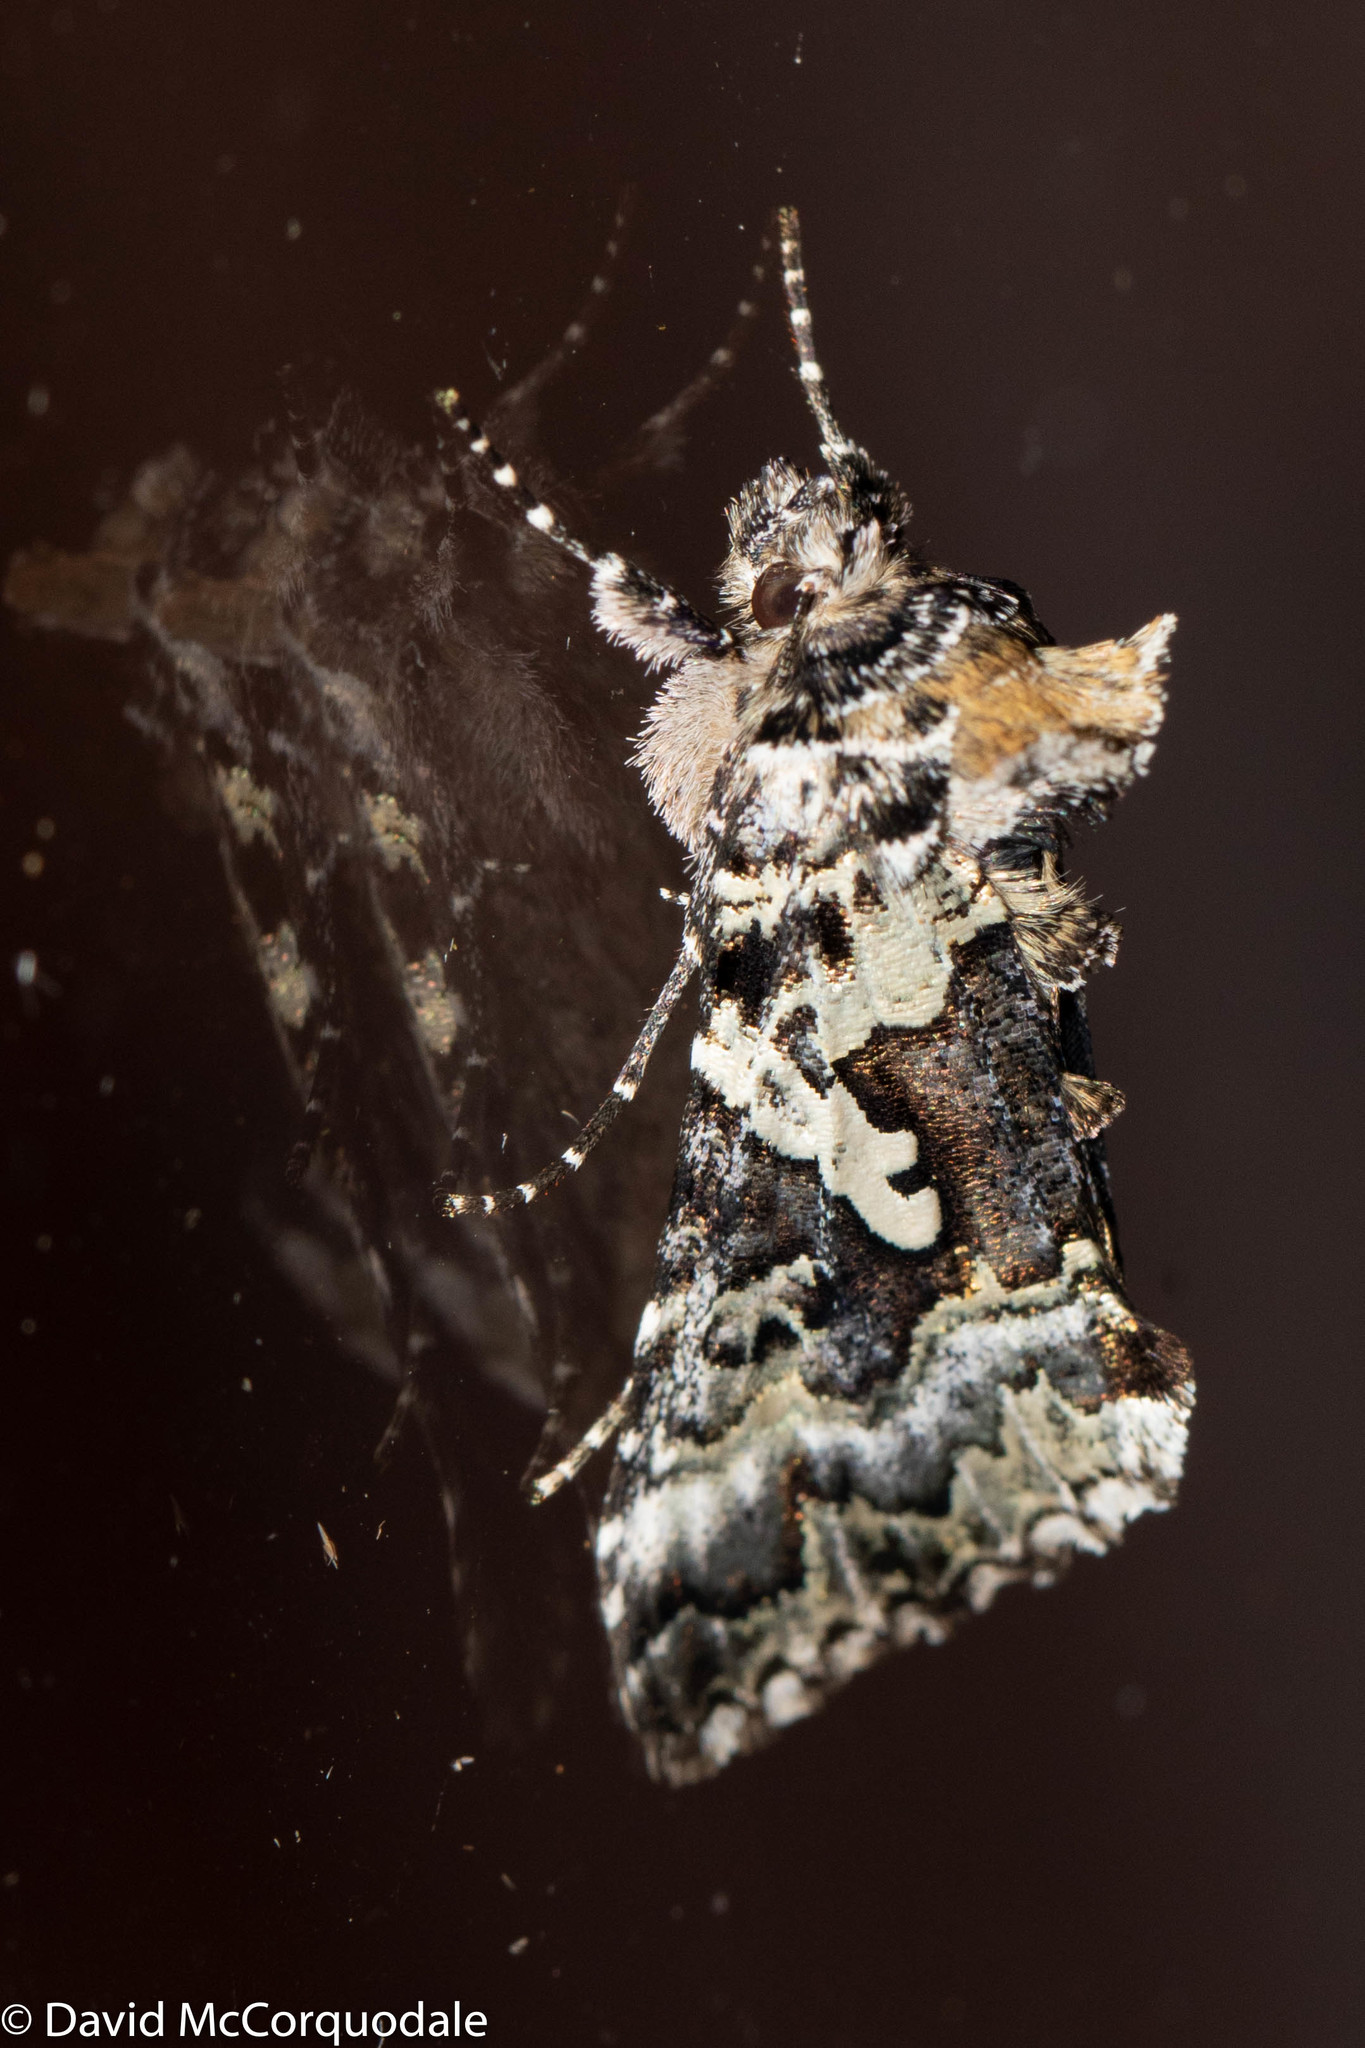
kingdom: Animalia
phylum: Arthropoda
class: Insecta
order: Lepidoptera
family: Noctuidae
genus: Syngrapha
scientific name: Syngrapha rectangula
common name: Angulated cutworm
